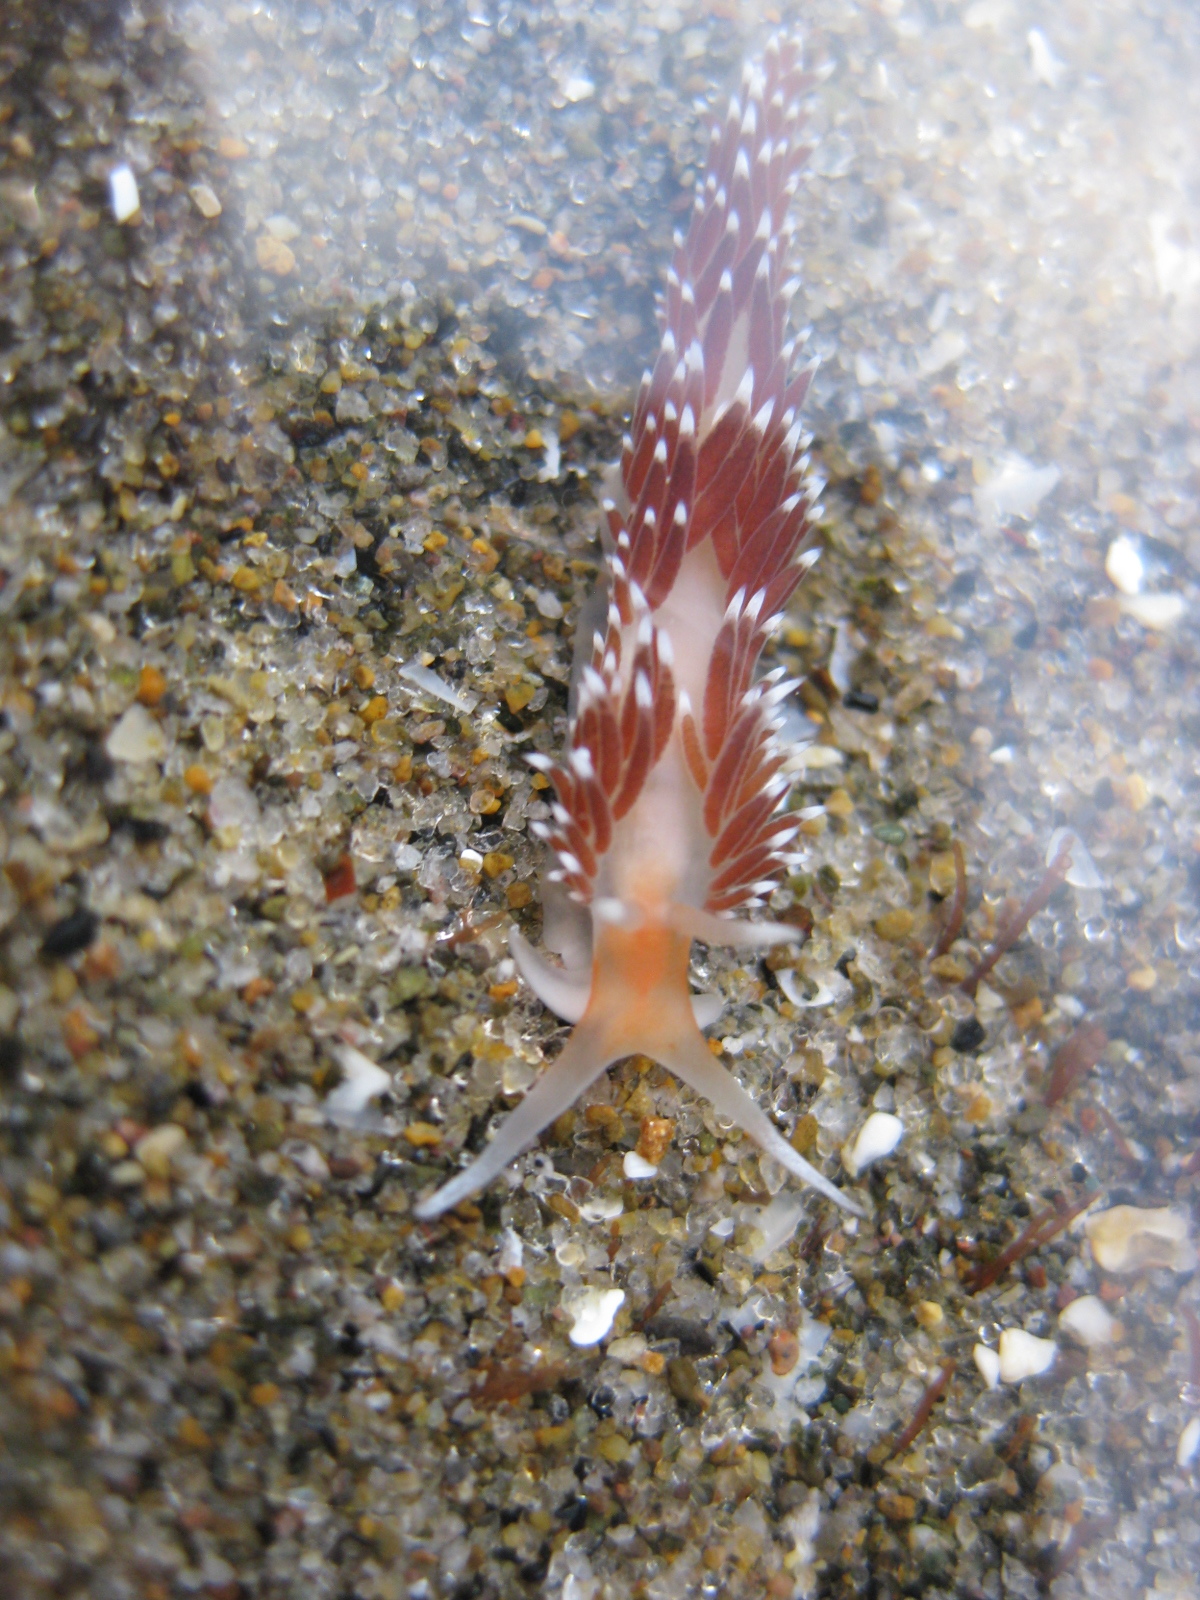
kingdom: Animalia
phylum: Mollusca
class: Gastropoda
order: Nudibranchia
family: Facelinidae
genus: Phidiana
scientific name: Phidiana milleri
